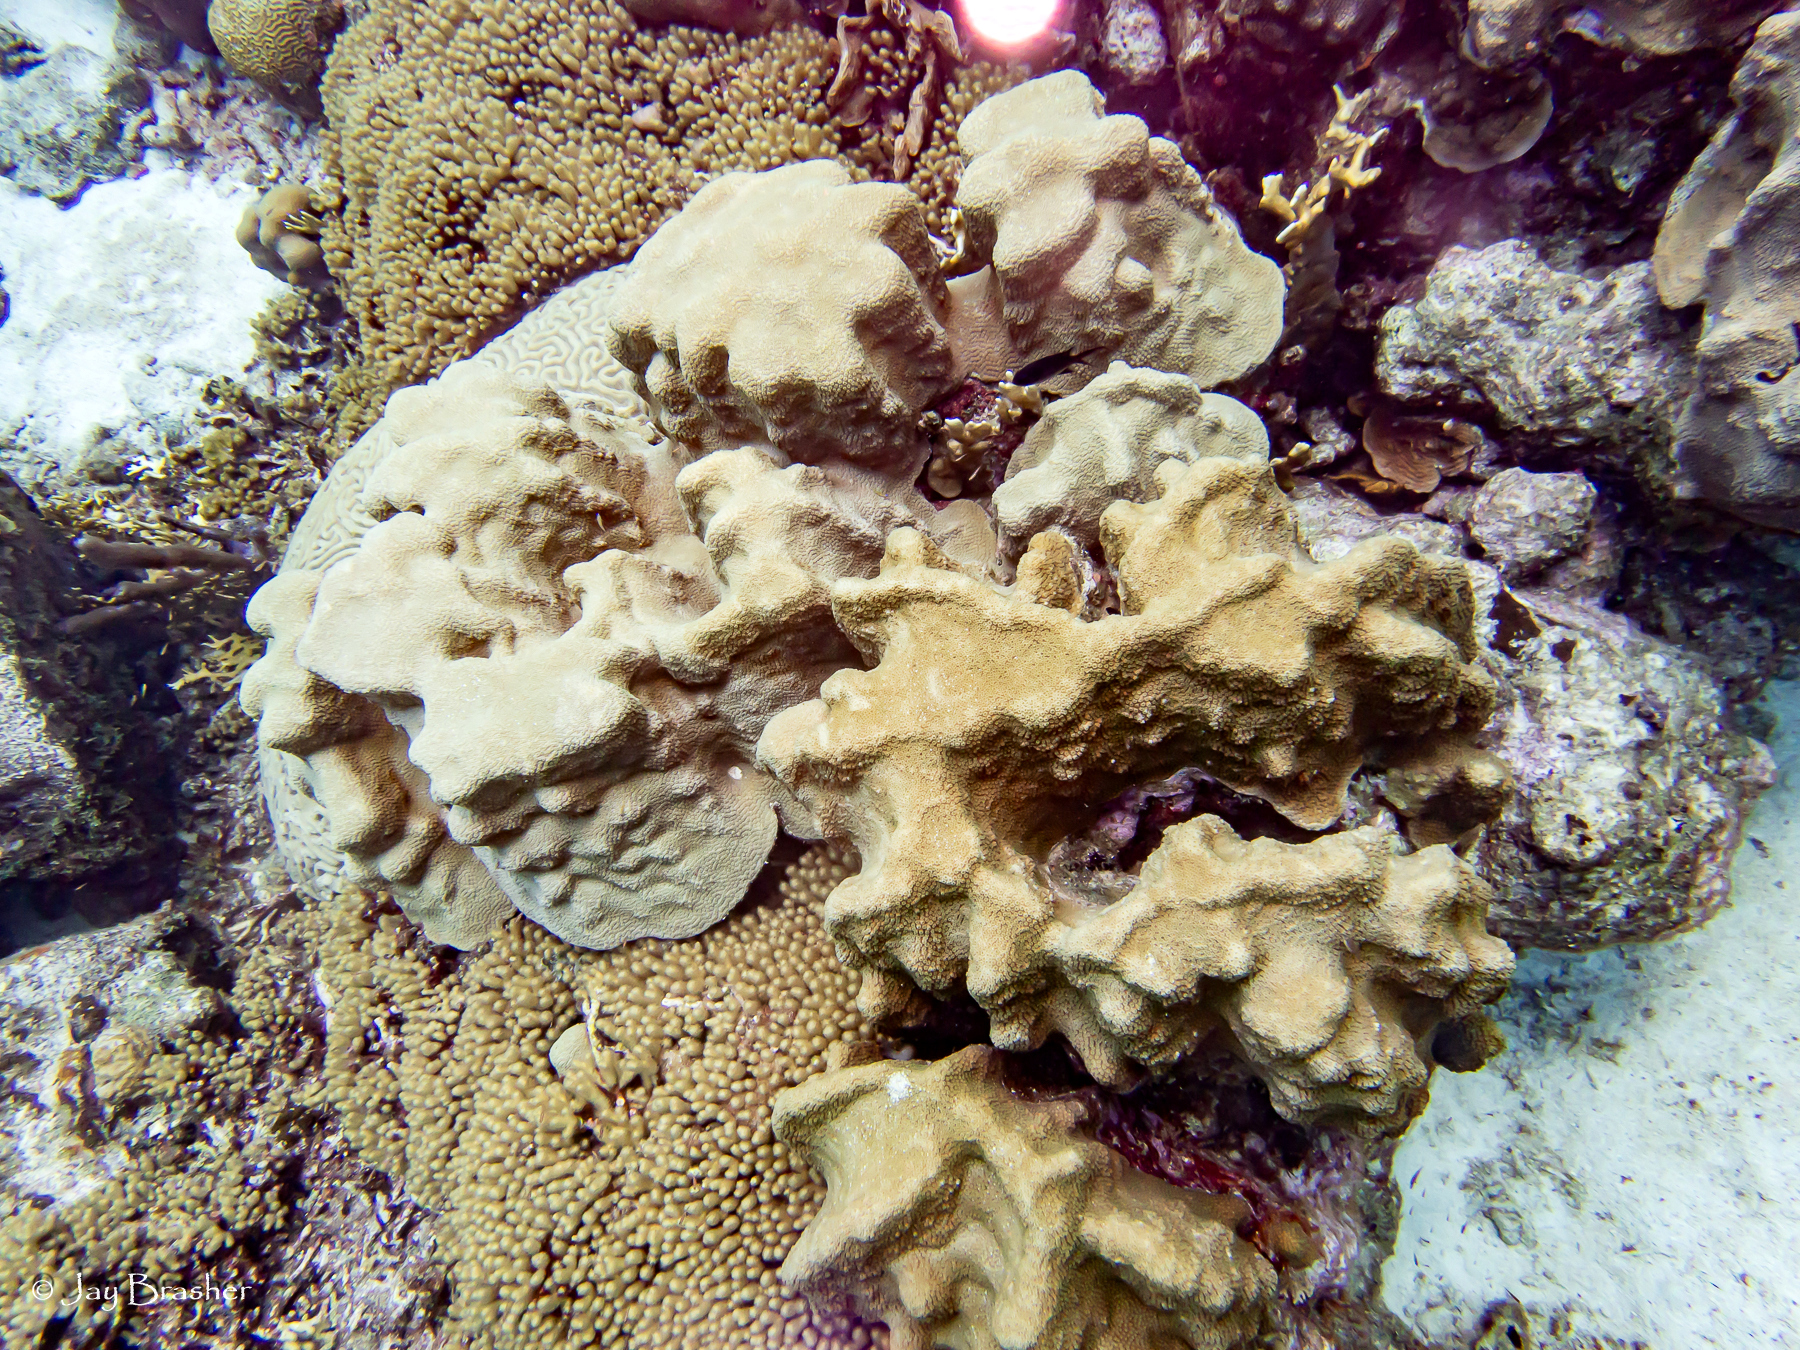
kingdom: Animalia
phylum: Cnidaria
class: Anthozoa
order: Scleractinia
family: Merulinidae
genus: Orbicella
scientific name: Orbicella faveolata
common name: Mountainous star coral
